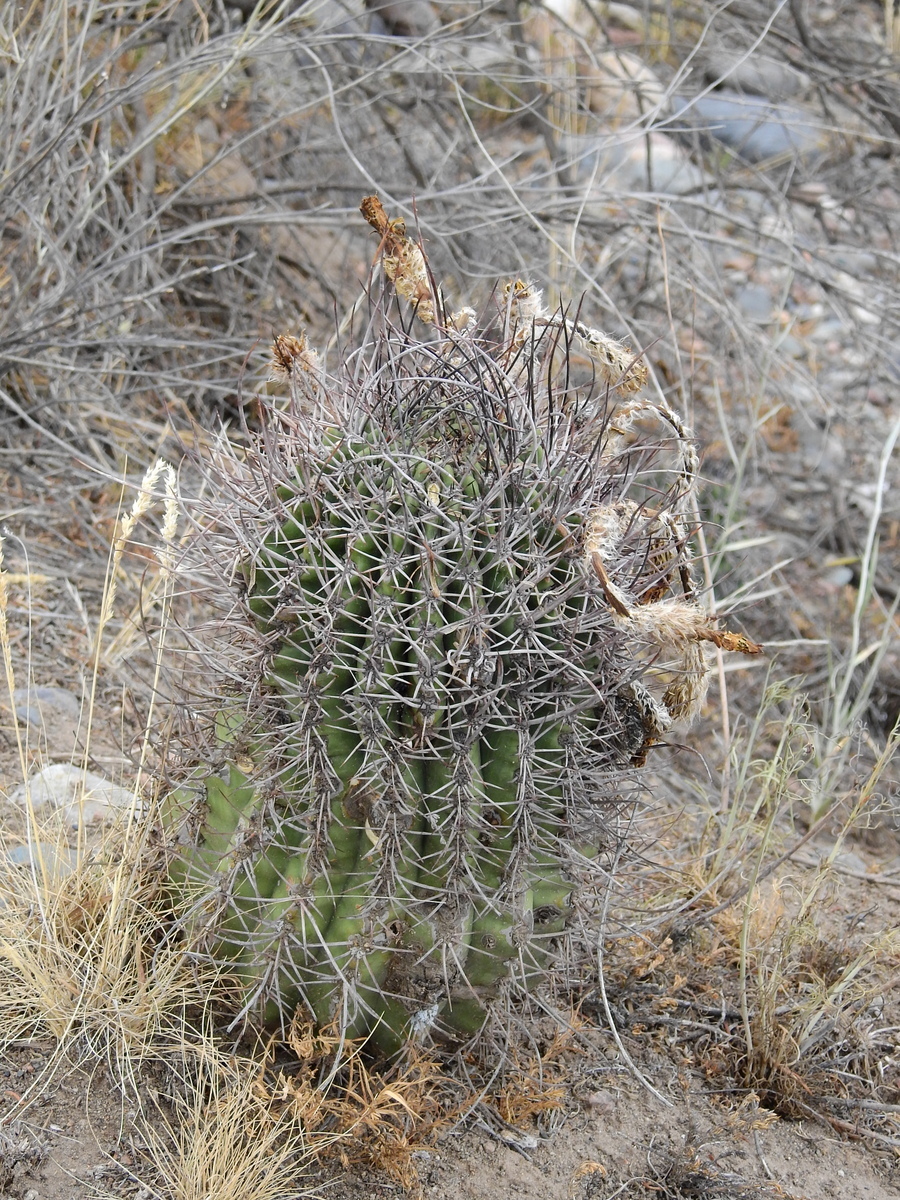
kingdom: Plantae
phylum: Tracheophyta
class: Magnoliopsida
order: Caryophyllales
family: Cactaceae
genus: Acanthocalycium
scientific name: Acanthocalycium leucanthum
